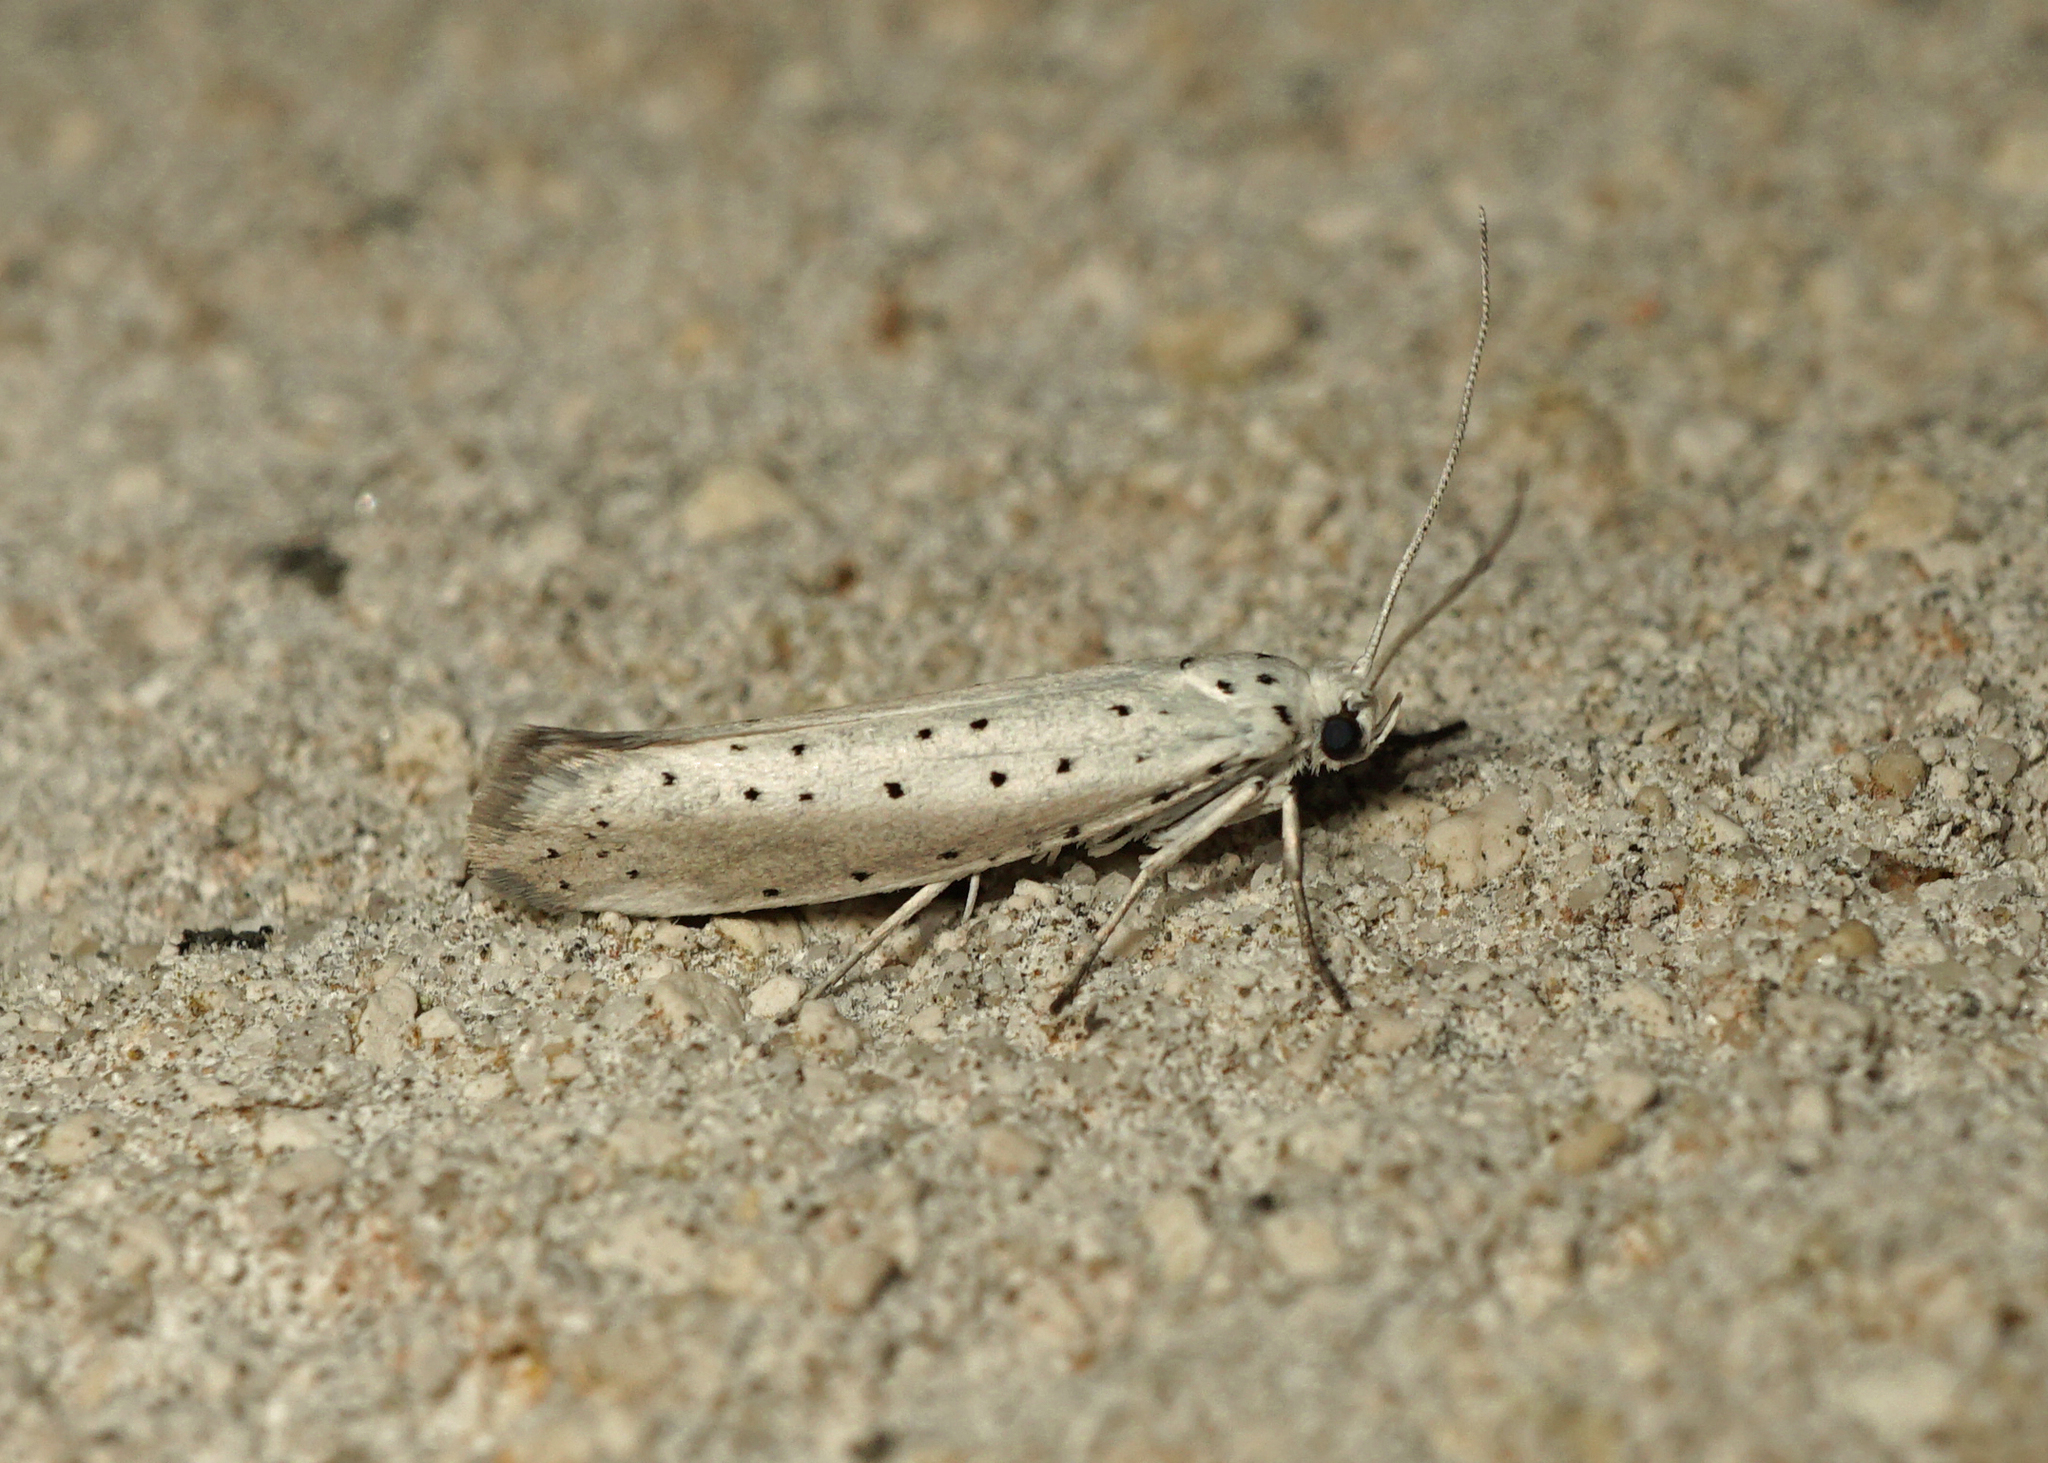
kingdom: Animalia
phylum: Arthropoda
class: Insecta
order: Lepidoptera
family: Yponomeutidae
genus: Yponomeuta
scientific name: Yponomeuta
